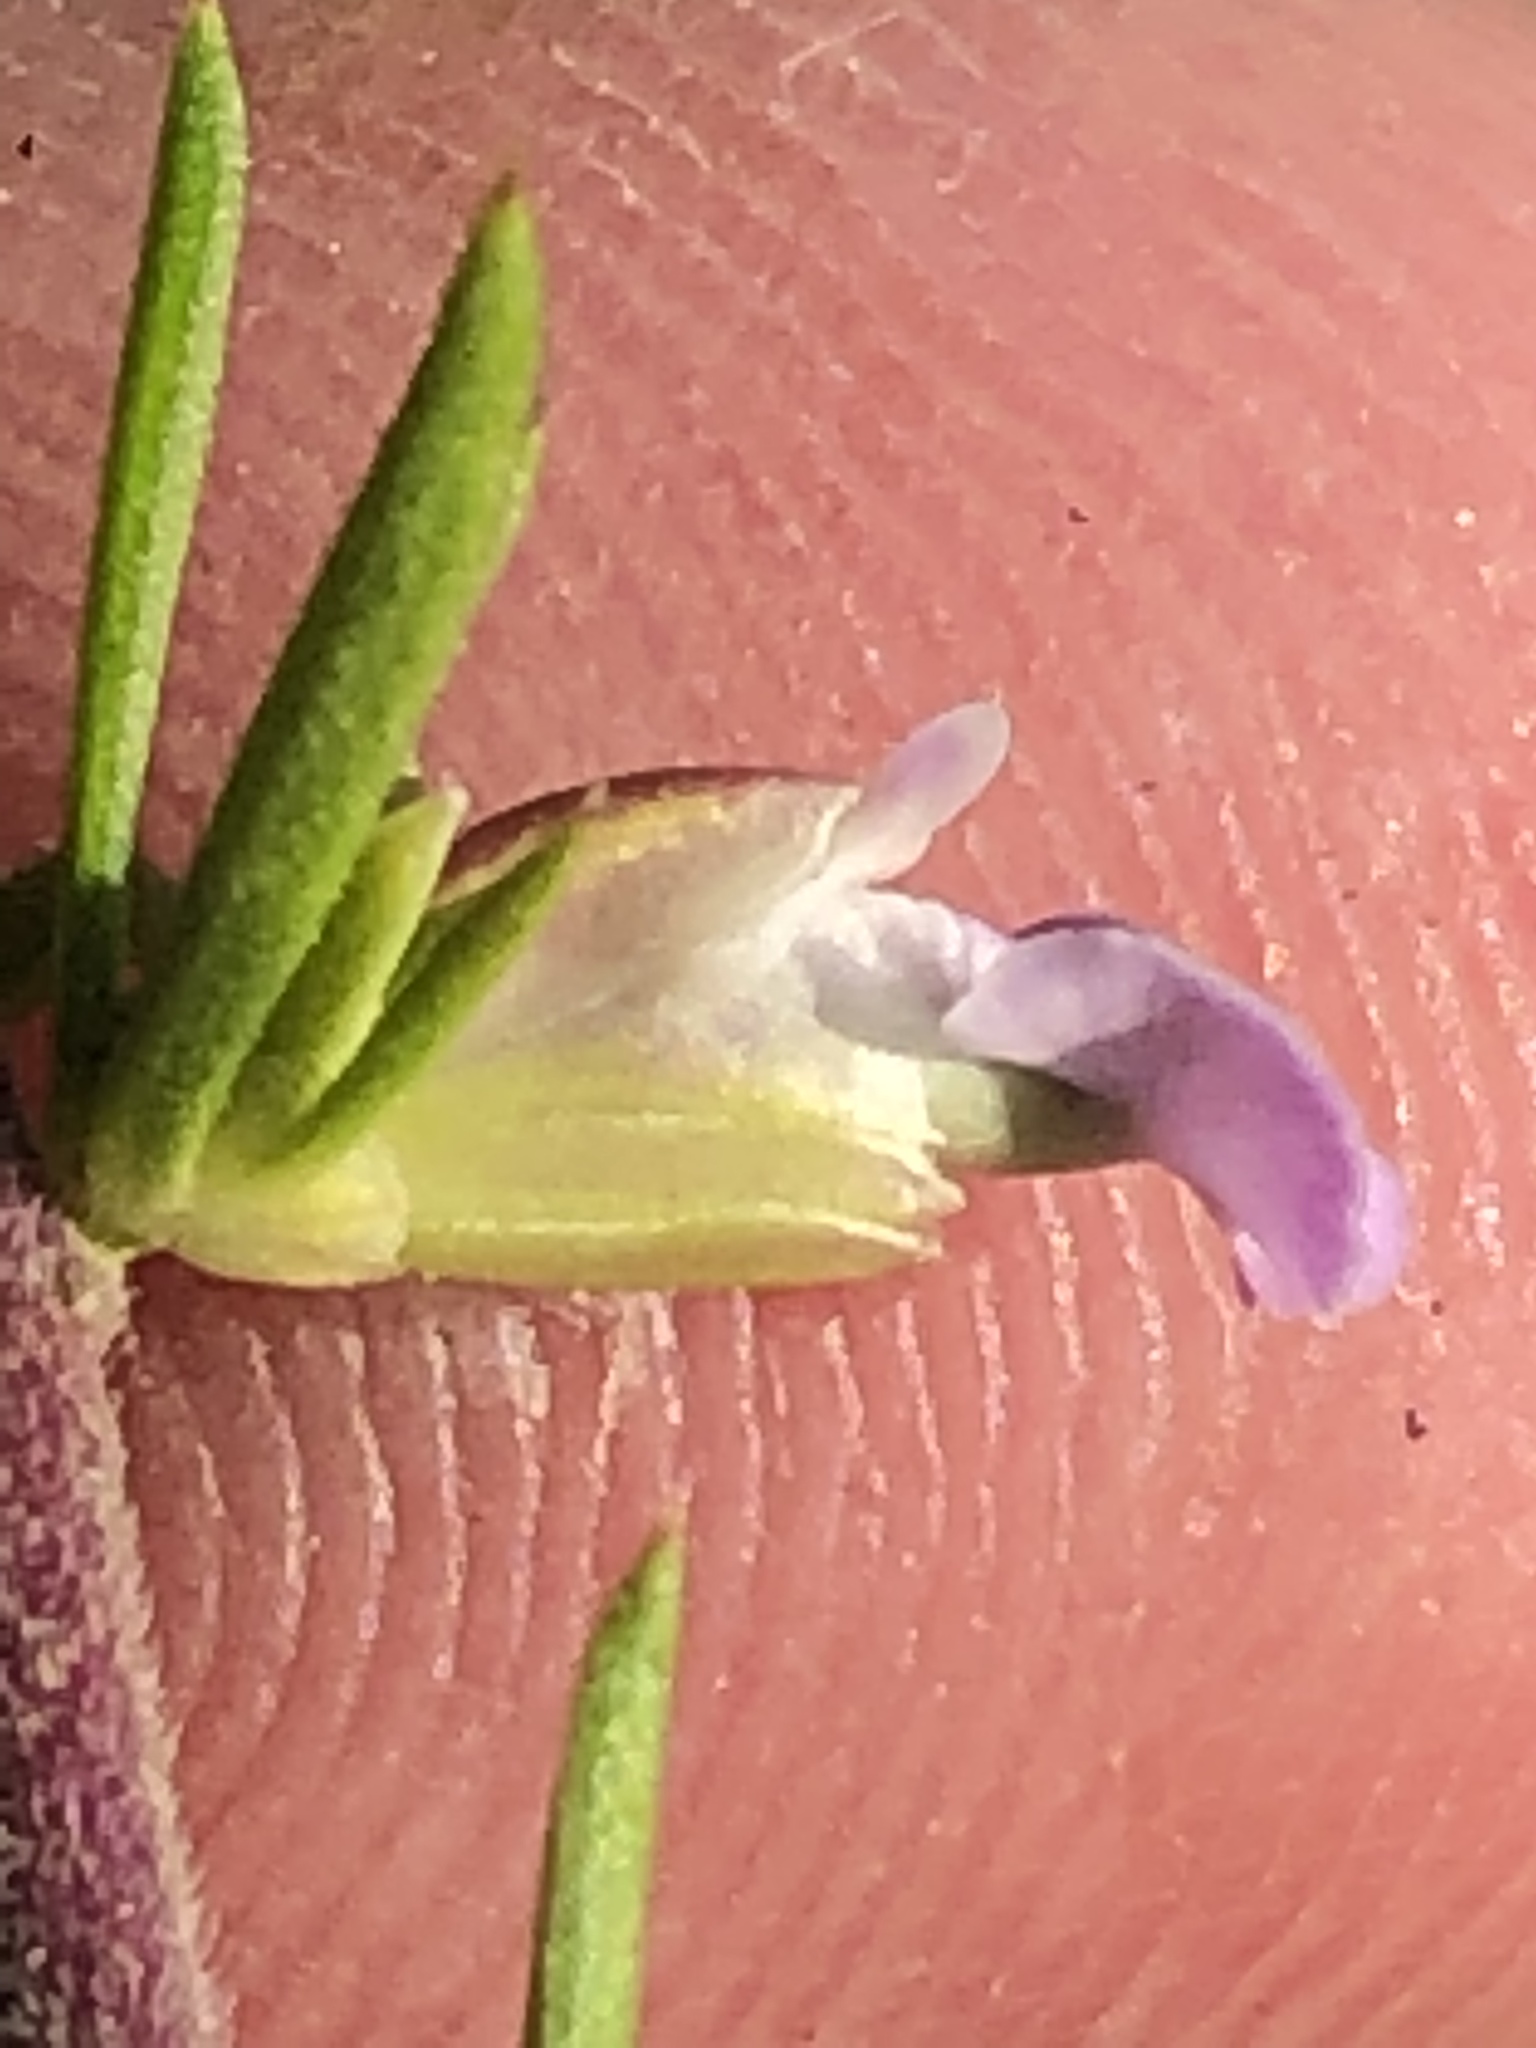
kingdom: Plantae
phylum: Tracheophyta
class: Magnoliopsida
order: Fabales
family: Polygalaceae
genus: Muraltia
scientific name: Muraltia ericifolia
